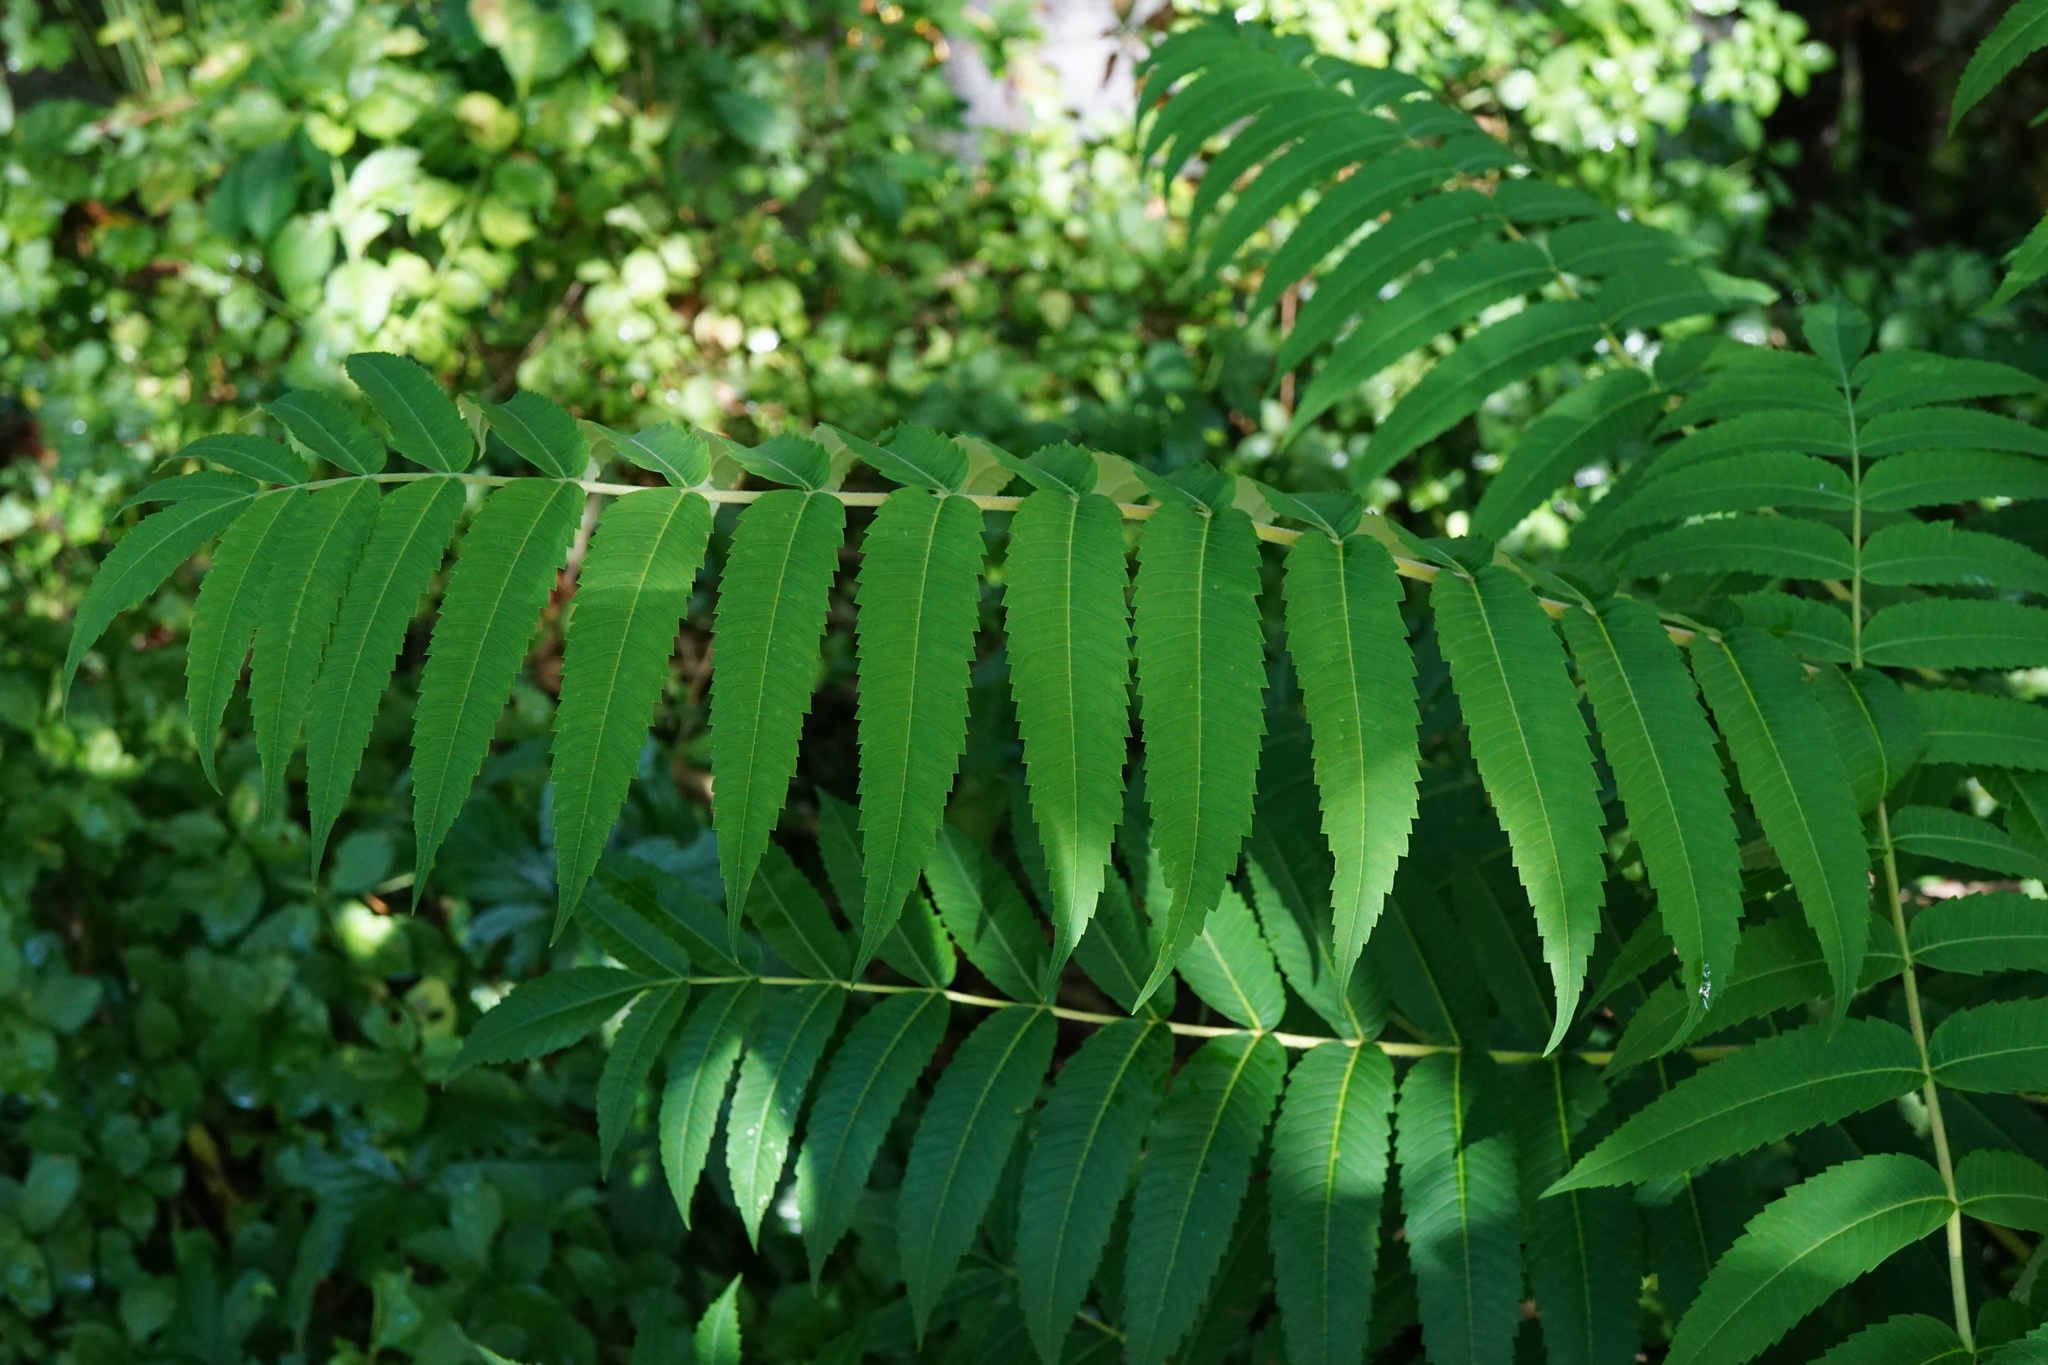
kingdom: Plantae
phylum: Tracheophyta
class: Magnoliopsida
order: Sapindales
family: Anacardiaceae
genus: Rhus
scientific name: Rhus typhina
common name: Staghorn sumac
